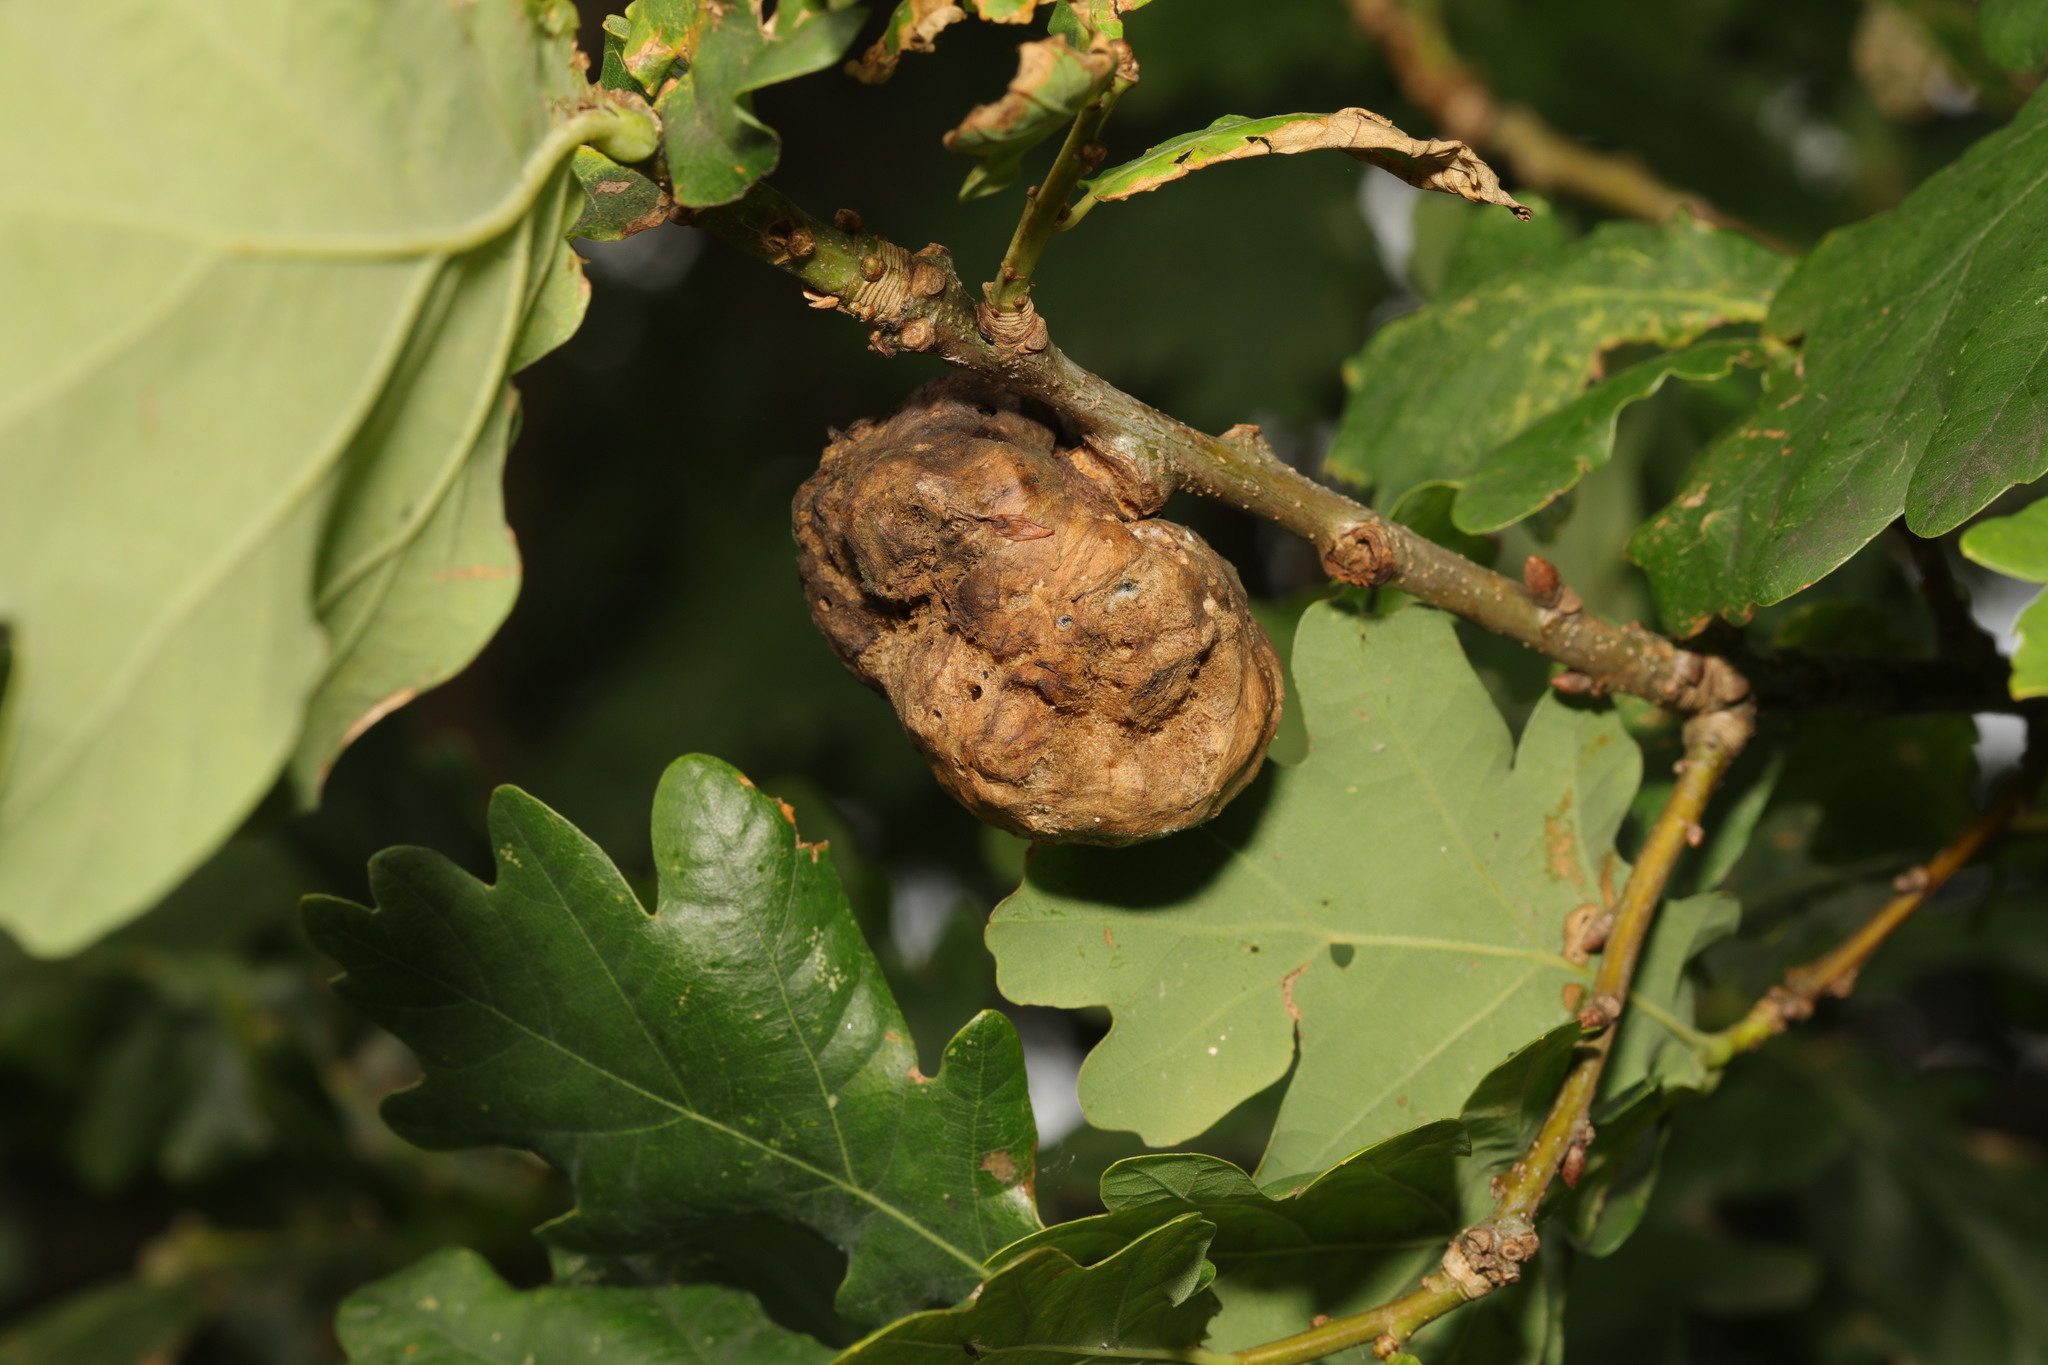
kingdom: Animalia
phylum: Arthropoda
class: Insecta
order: Hymenoptera
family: Cynipidae
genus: Biorhiza
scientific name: Biorhiza pallida
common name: Oak apple
